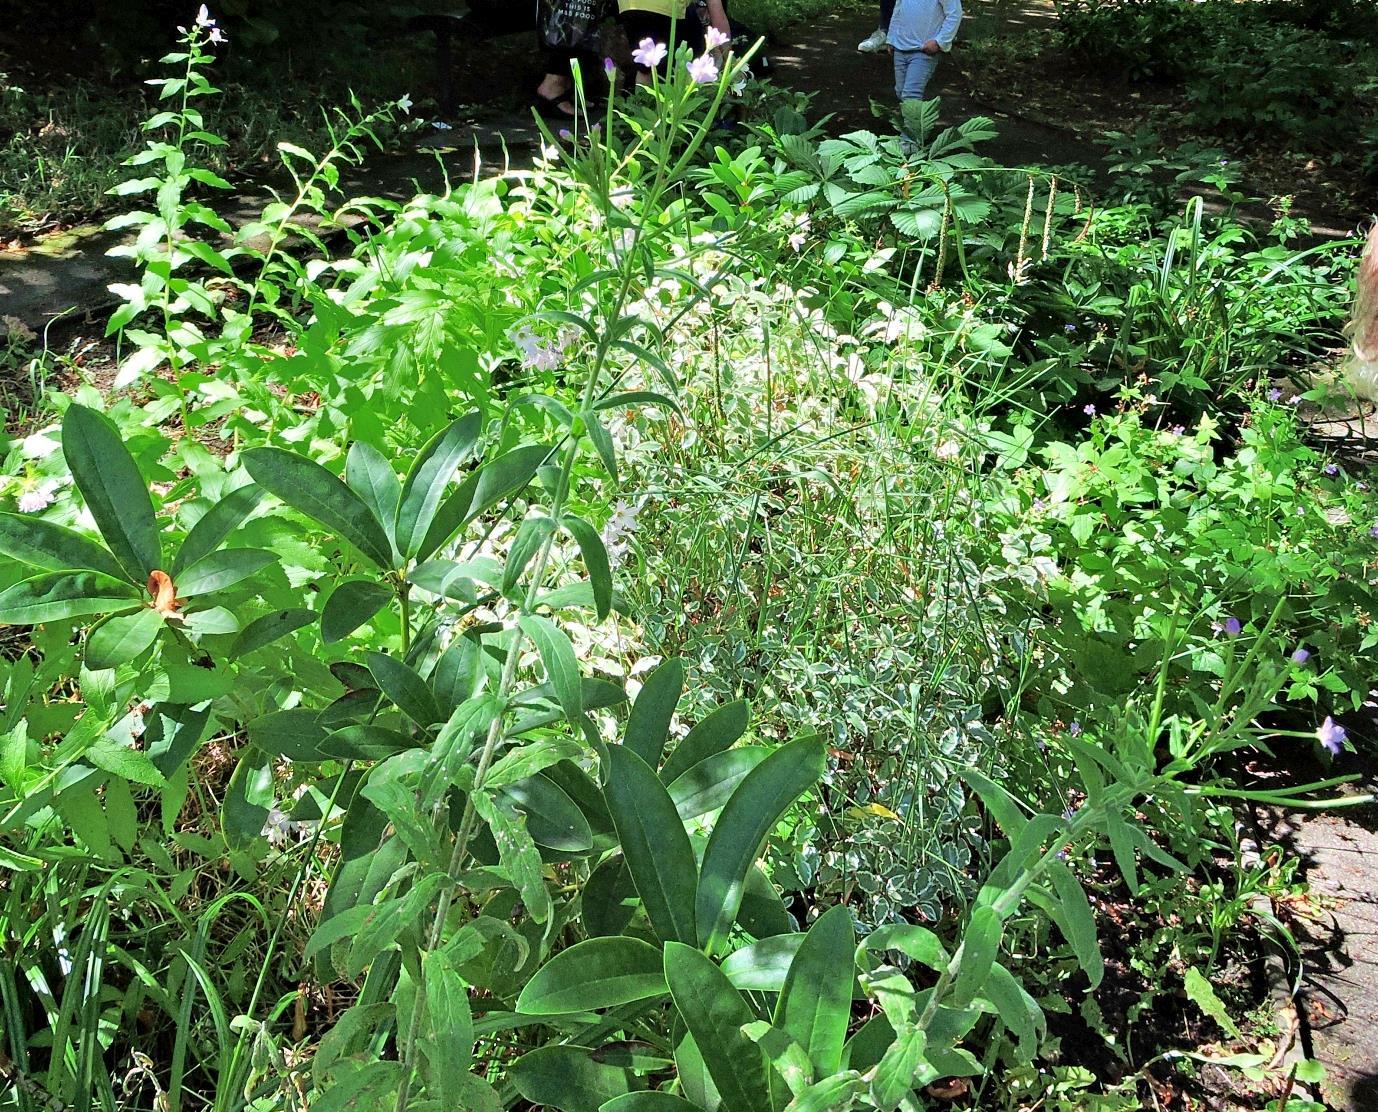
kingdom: Plantae
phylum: Tracheophyta
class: Magnoliopsida
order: Myrtales
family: Onagraceae
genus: Epilobium
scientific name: Epilobium parviflorum
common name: Hoary willowherb
